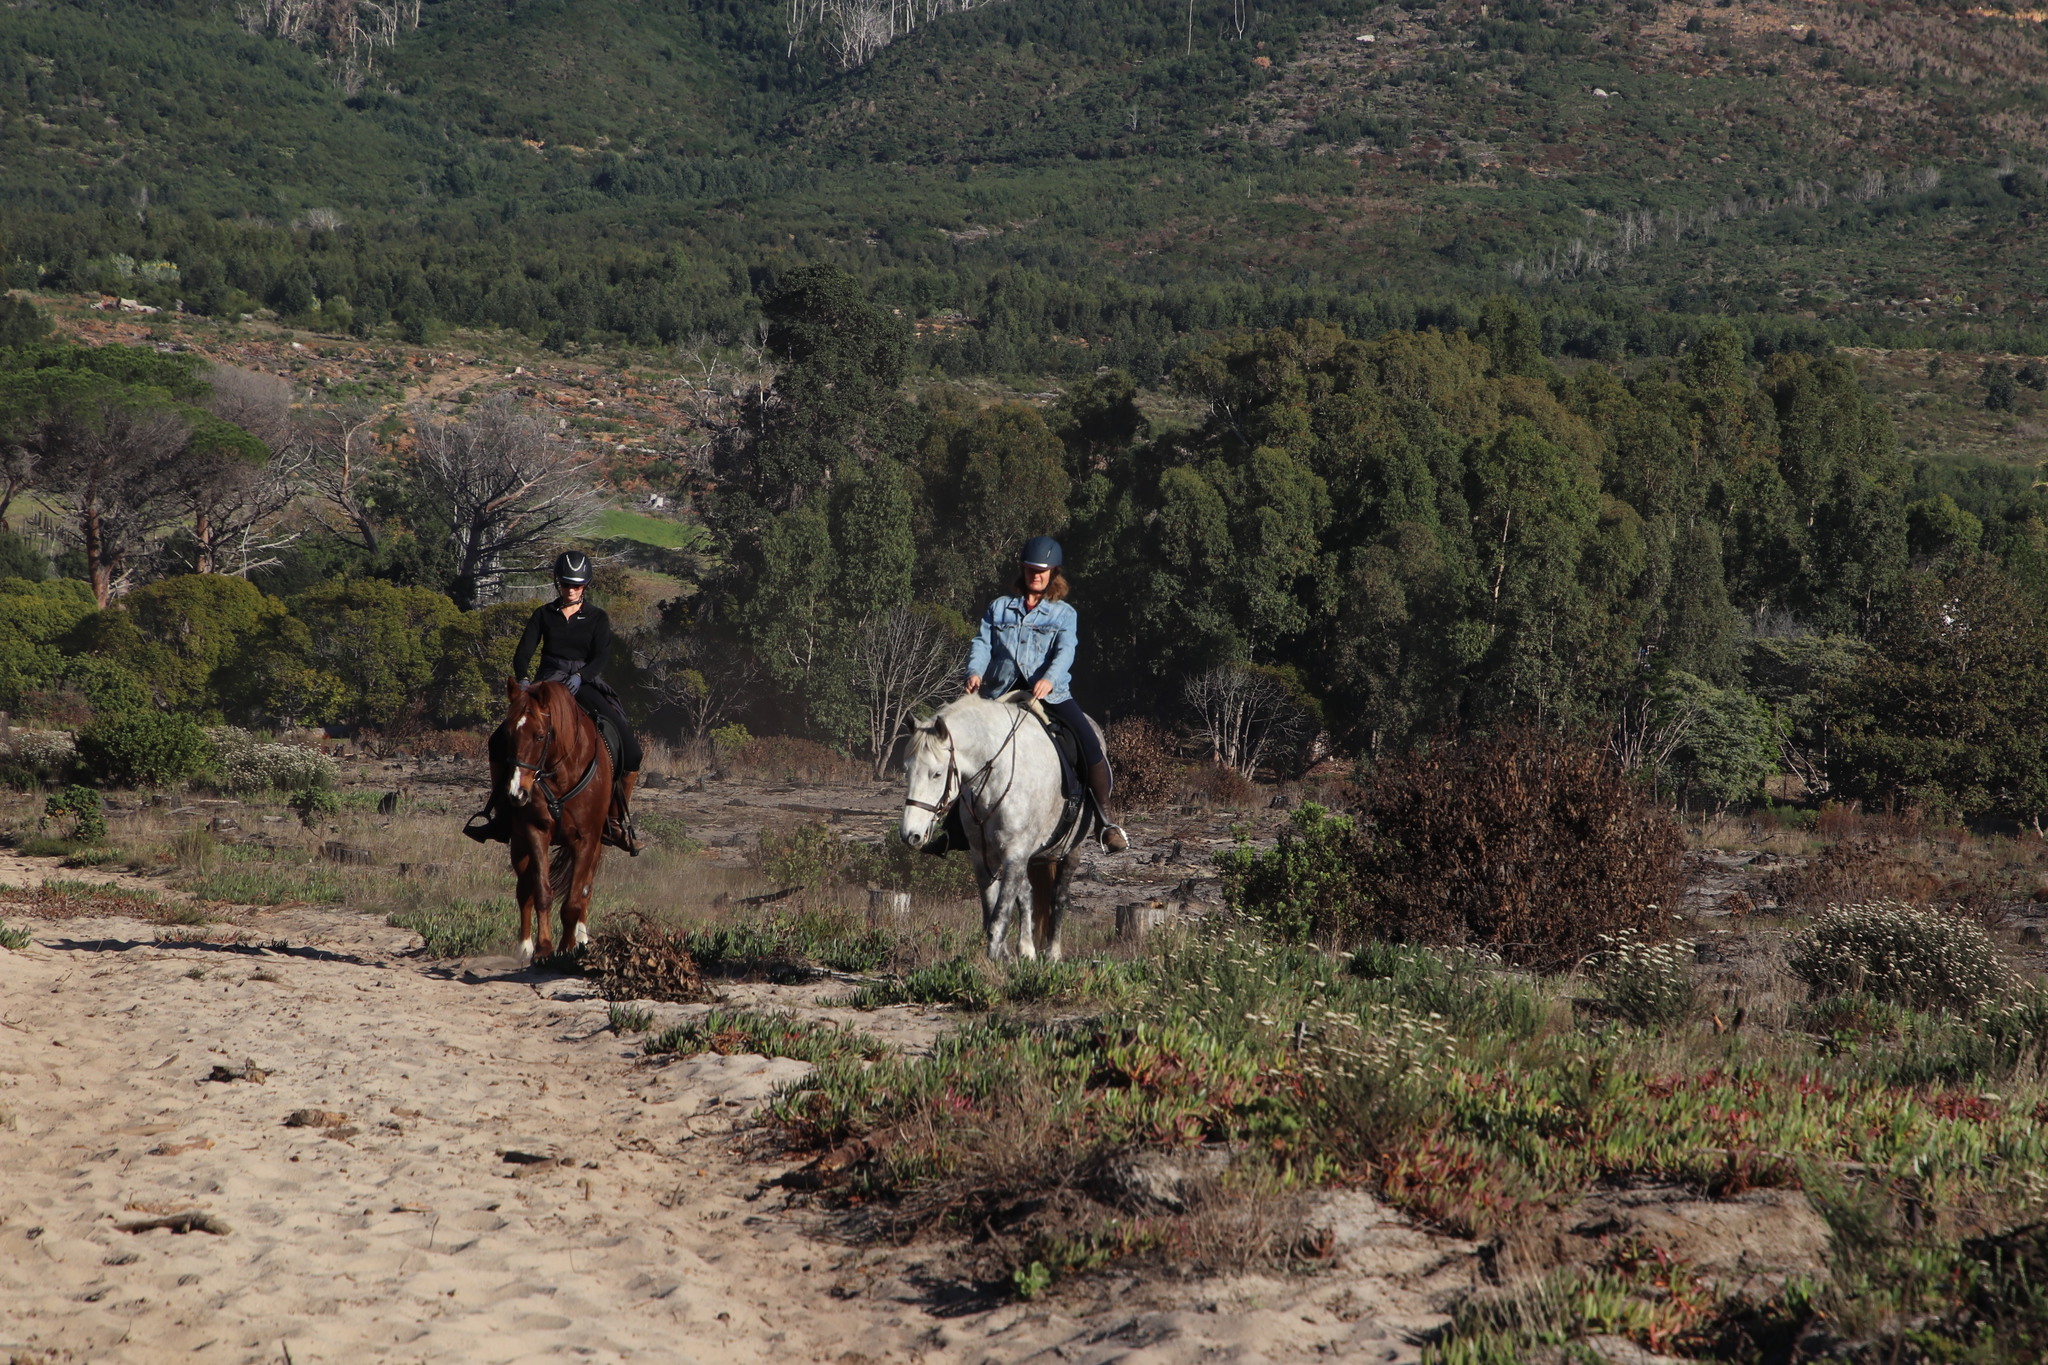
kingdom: Plantae
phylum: Tracheophyta
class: Magnoliopsida
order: Caryophyllales
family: Aizoaceae
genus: Carpobrotus
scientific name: Carpobrotus edulis
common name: Hottentot-fig
